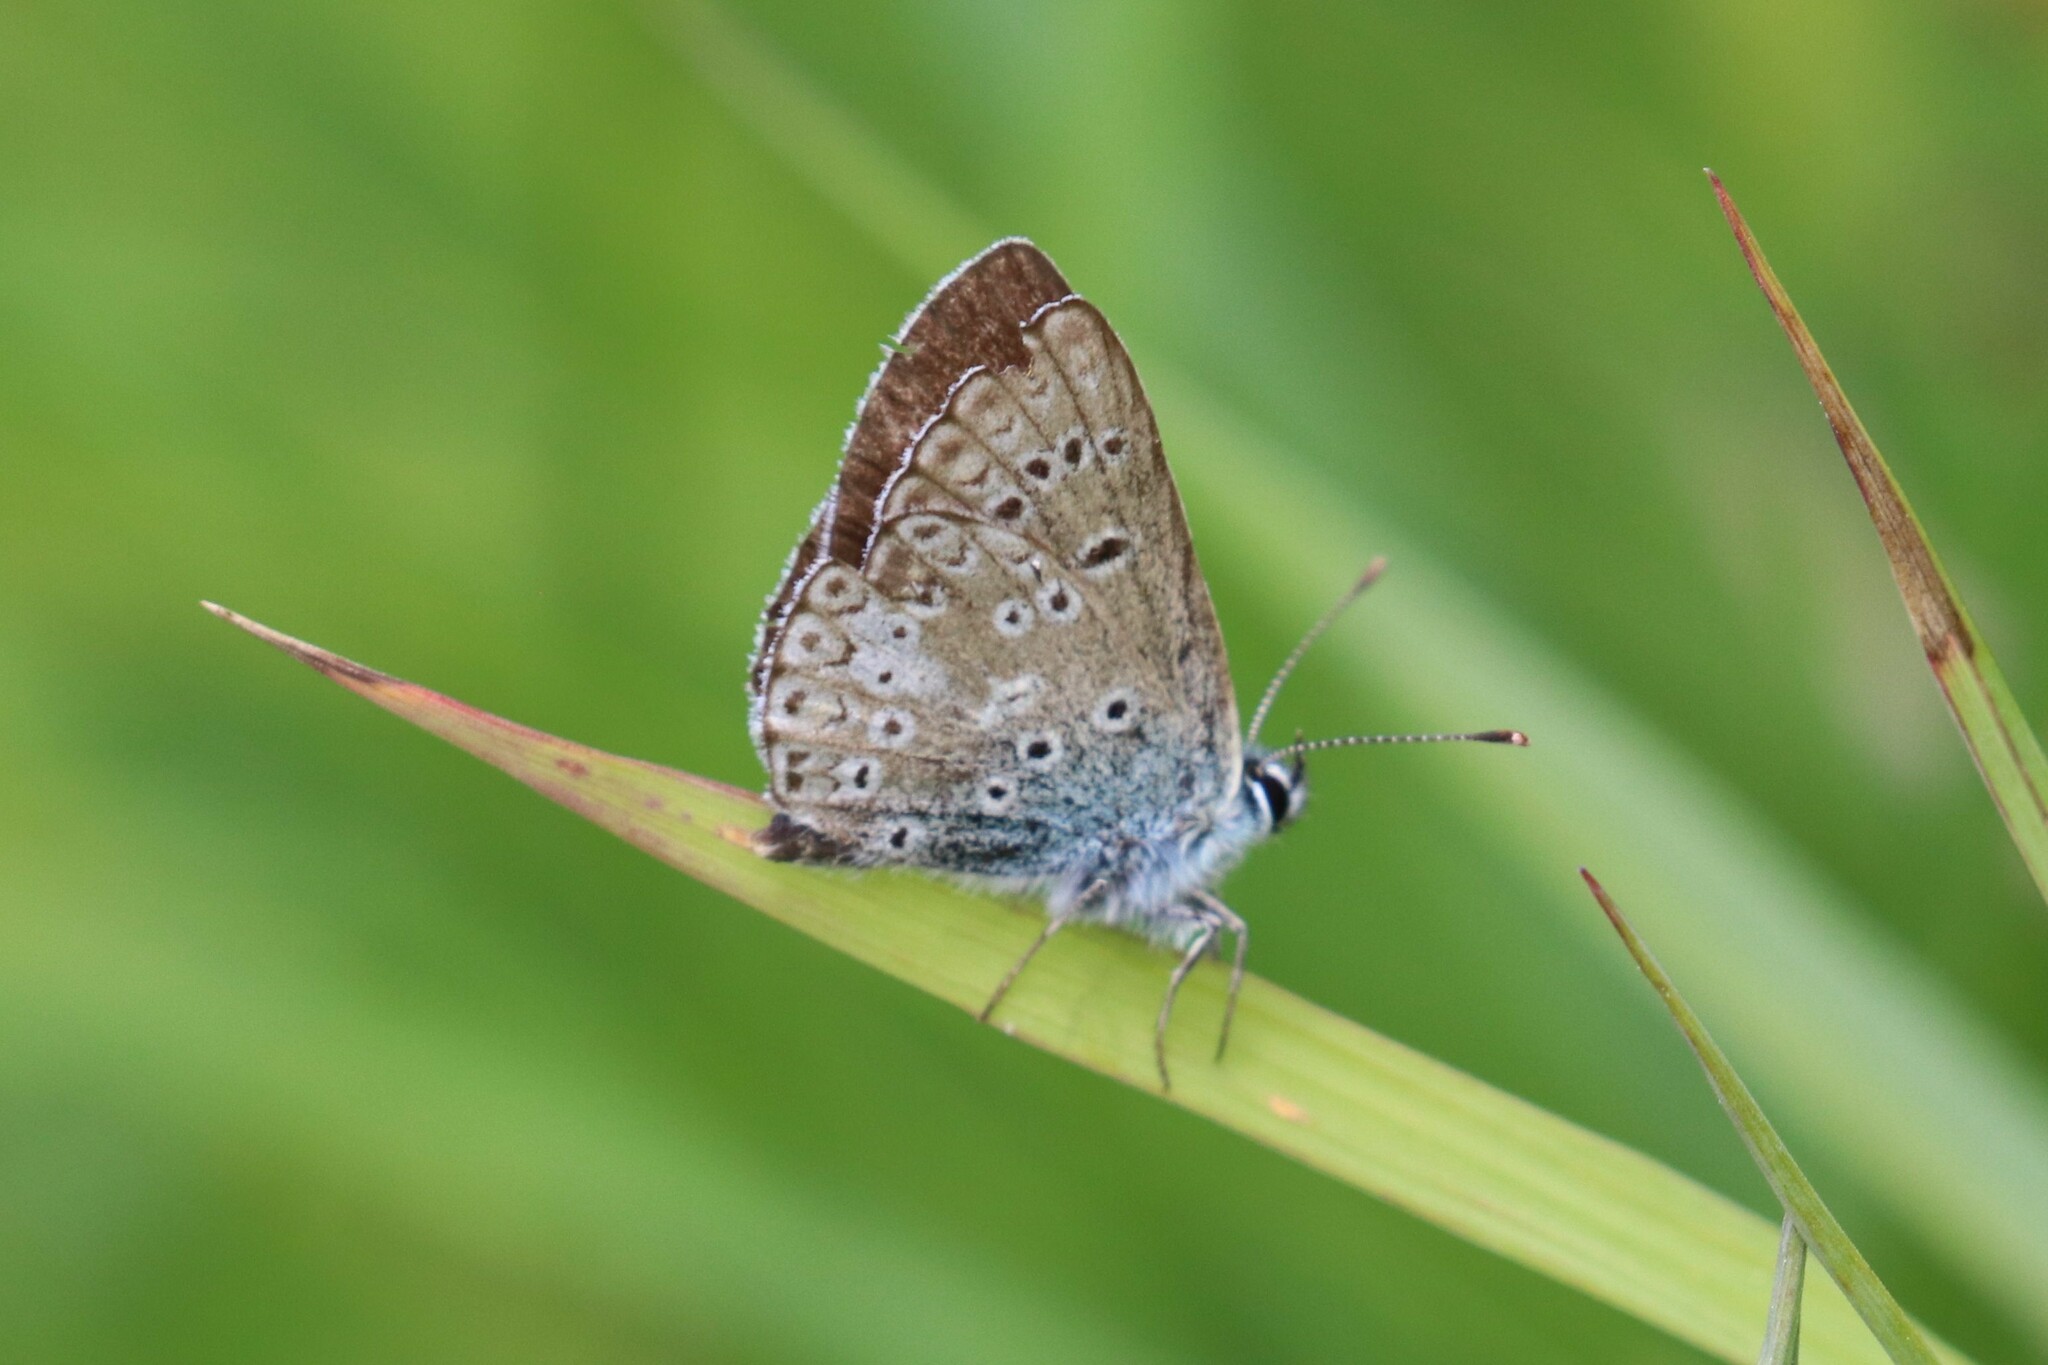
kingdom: Animalia
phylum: Arthropoda
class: Insecta
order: Lepidoptera
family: Lycaenidae
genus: Aricia
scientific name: Aricia artaxerxes
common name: Northern brown argus
